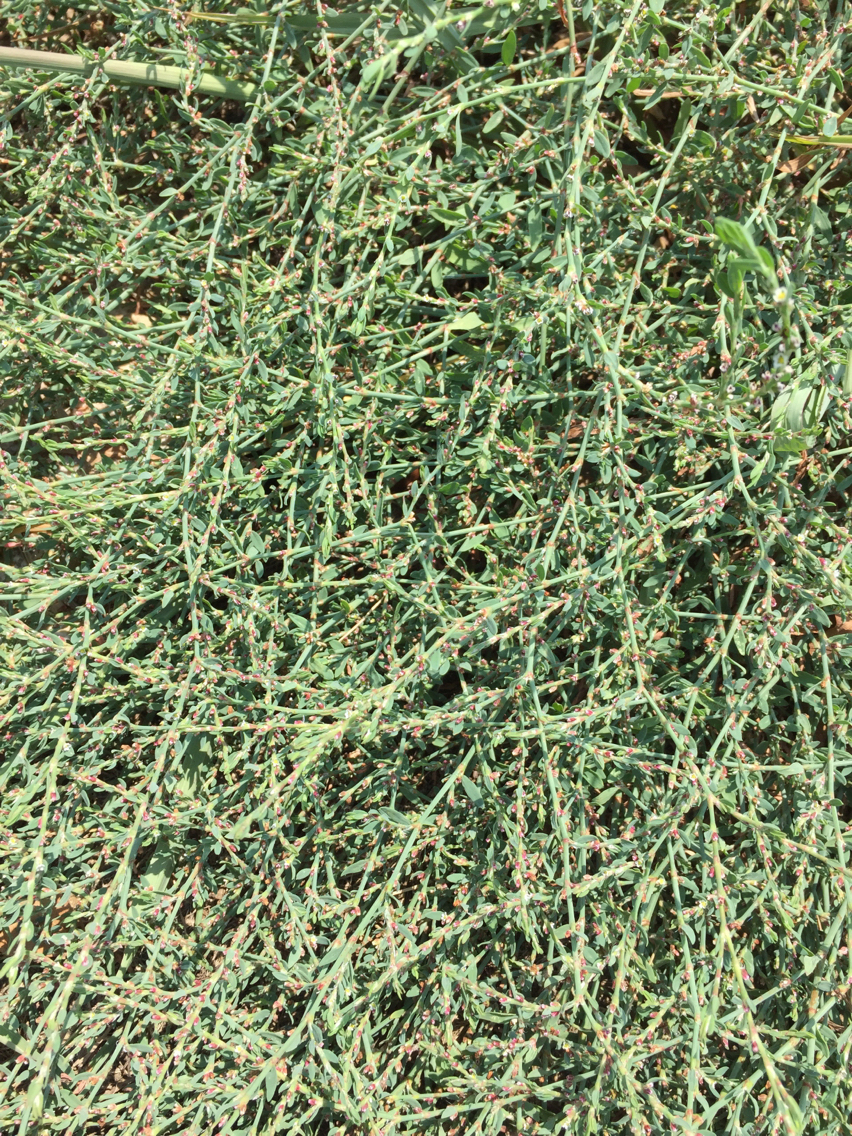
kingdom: Plantae
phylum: Tracheophyta
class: Magnoliopsida
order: Caryophyllales
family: Polygonaceae
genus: Polygonum
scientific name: Polygonum aviculare
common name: Prostrate knotweed
